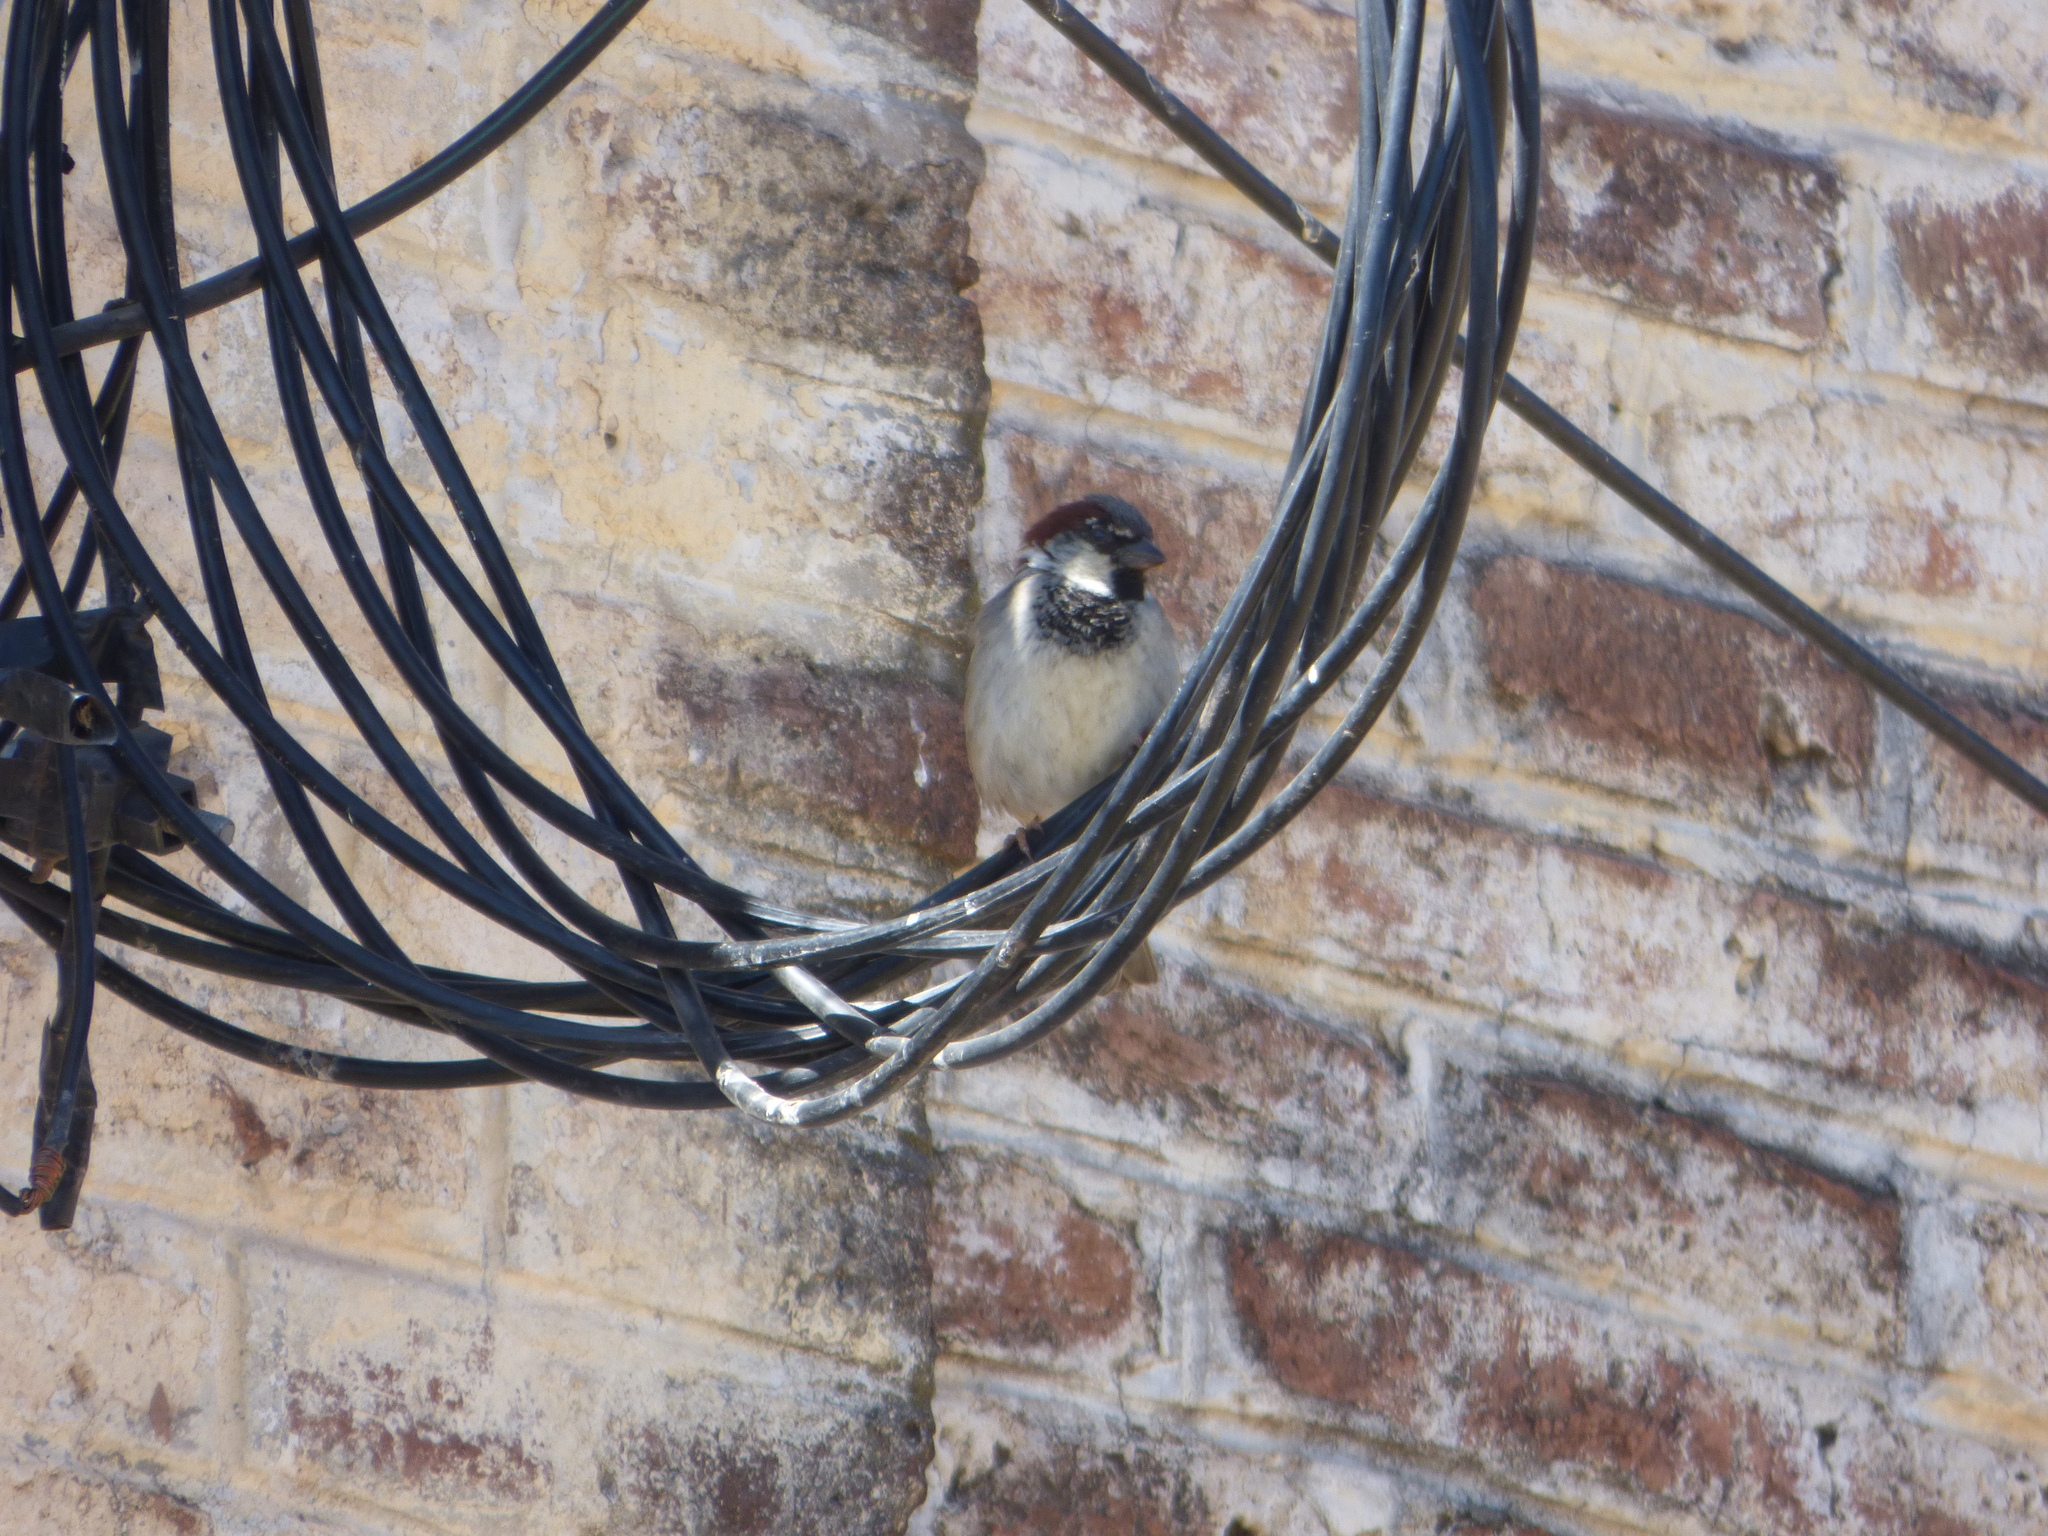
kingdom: Animalia
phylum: Chordata
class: Aves
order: Passeriformes
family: Passeridae
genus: Passer
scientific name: Passer domesticus
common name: House sparrow
